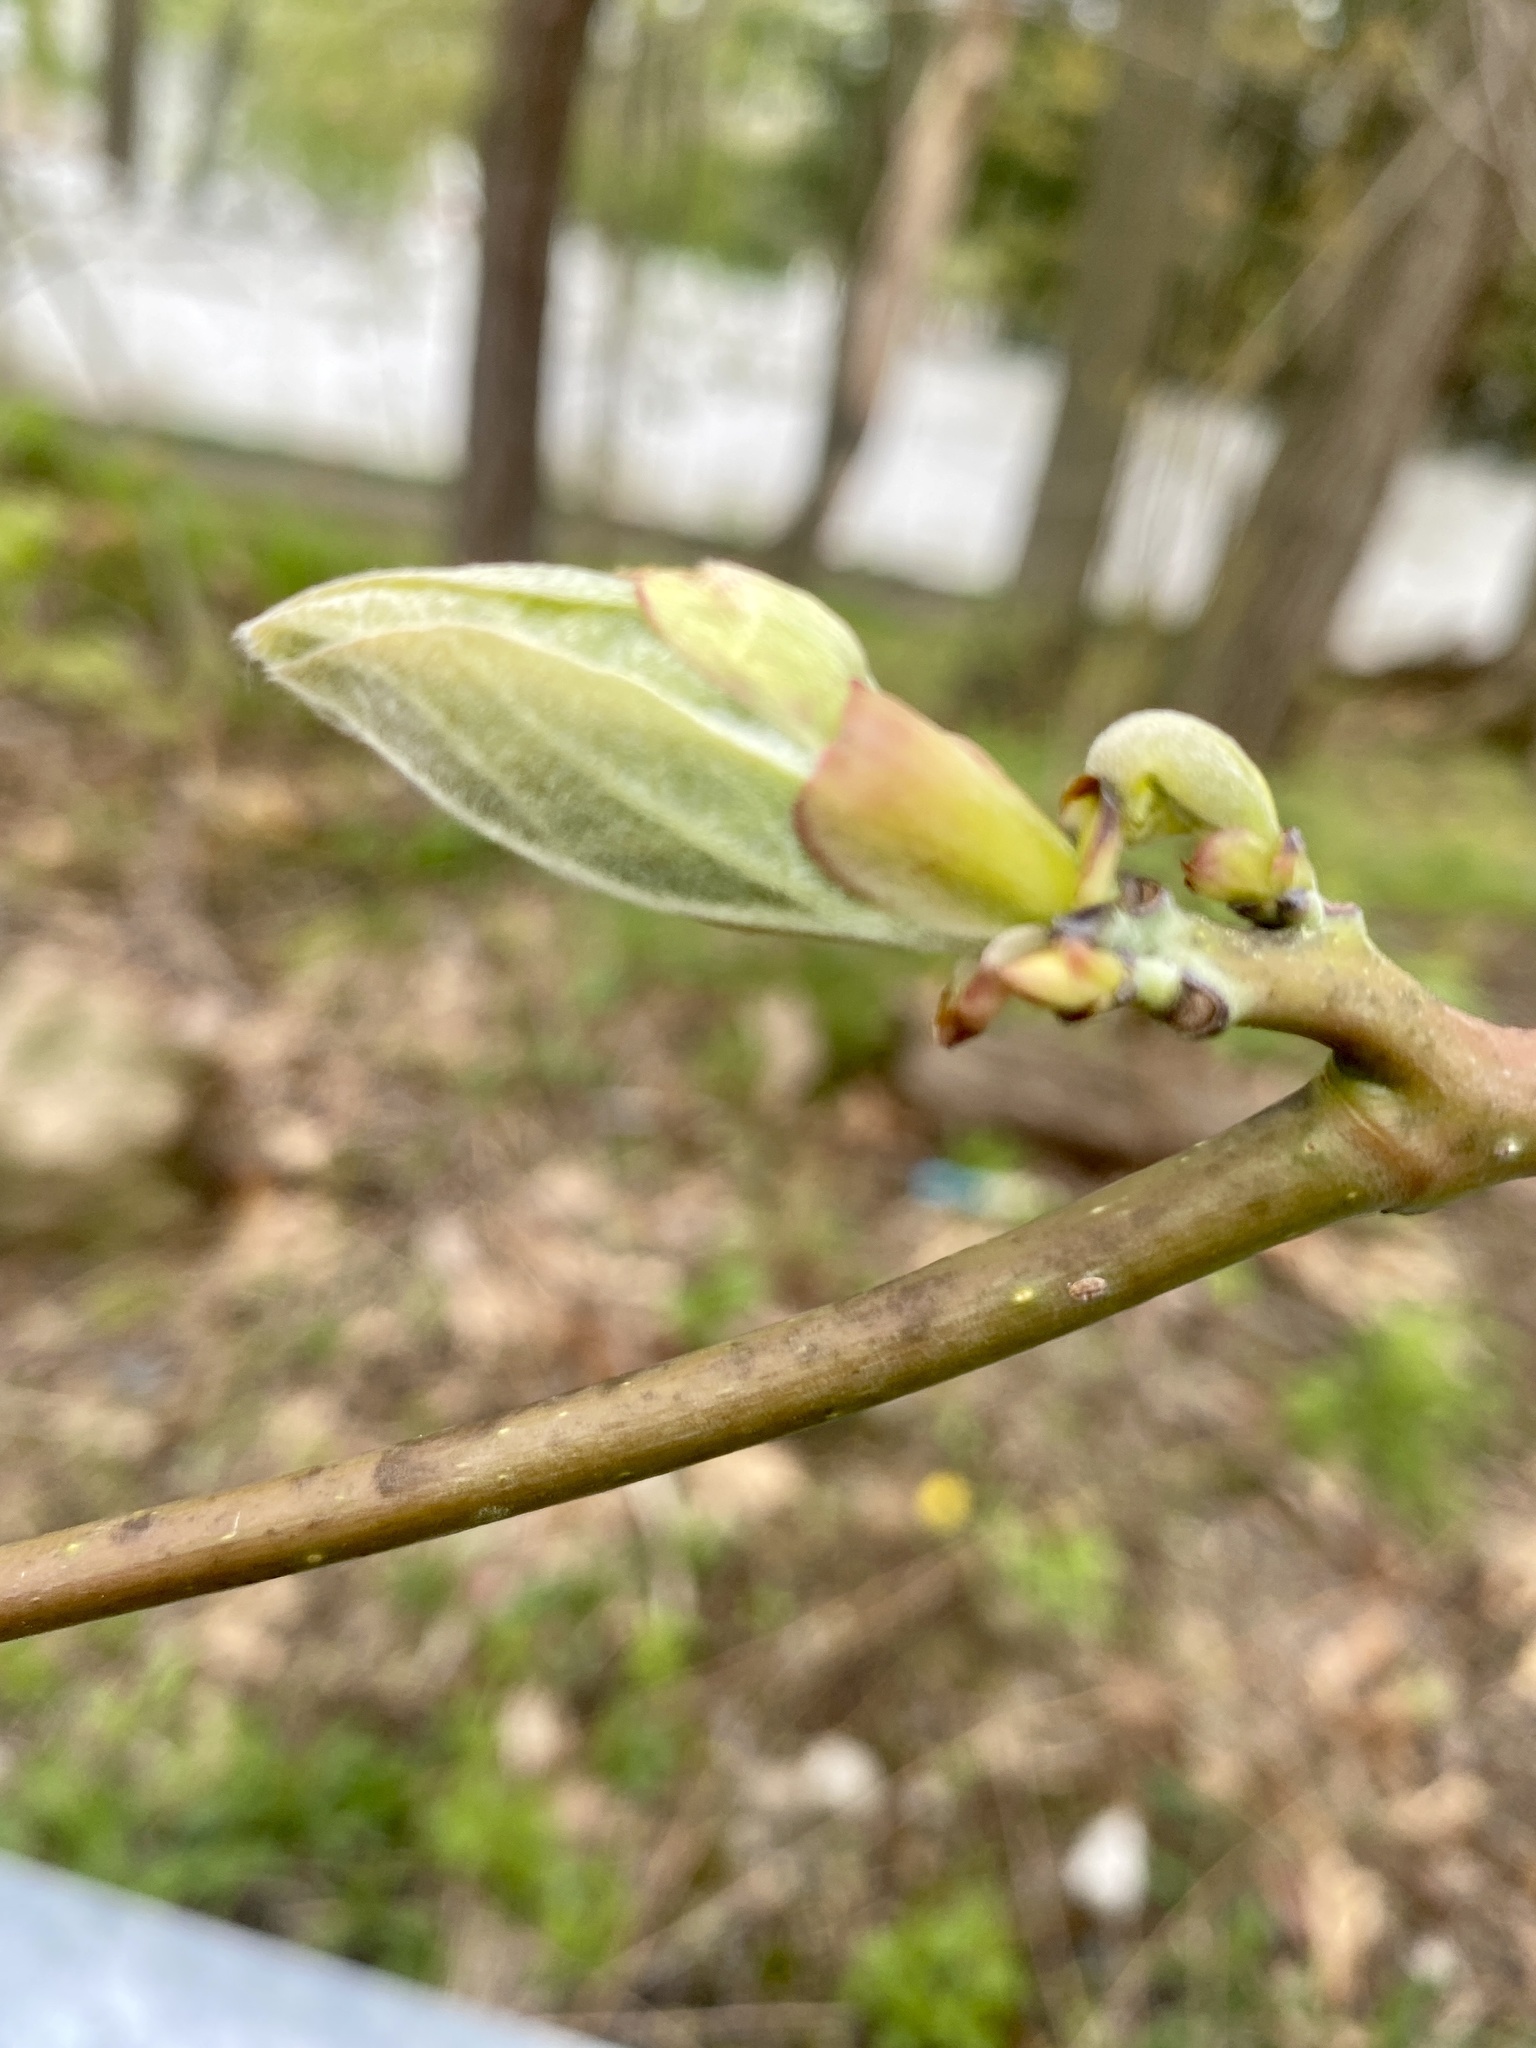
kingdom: Plantae
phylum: Tracheophyta
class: Magnoliopsida
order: Laurales
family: Lauraceae
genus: Sassafras
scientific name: Sassafras albidum
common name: Sassafras
